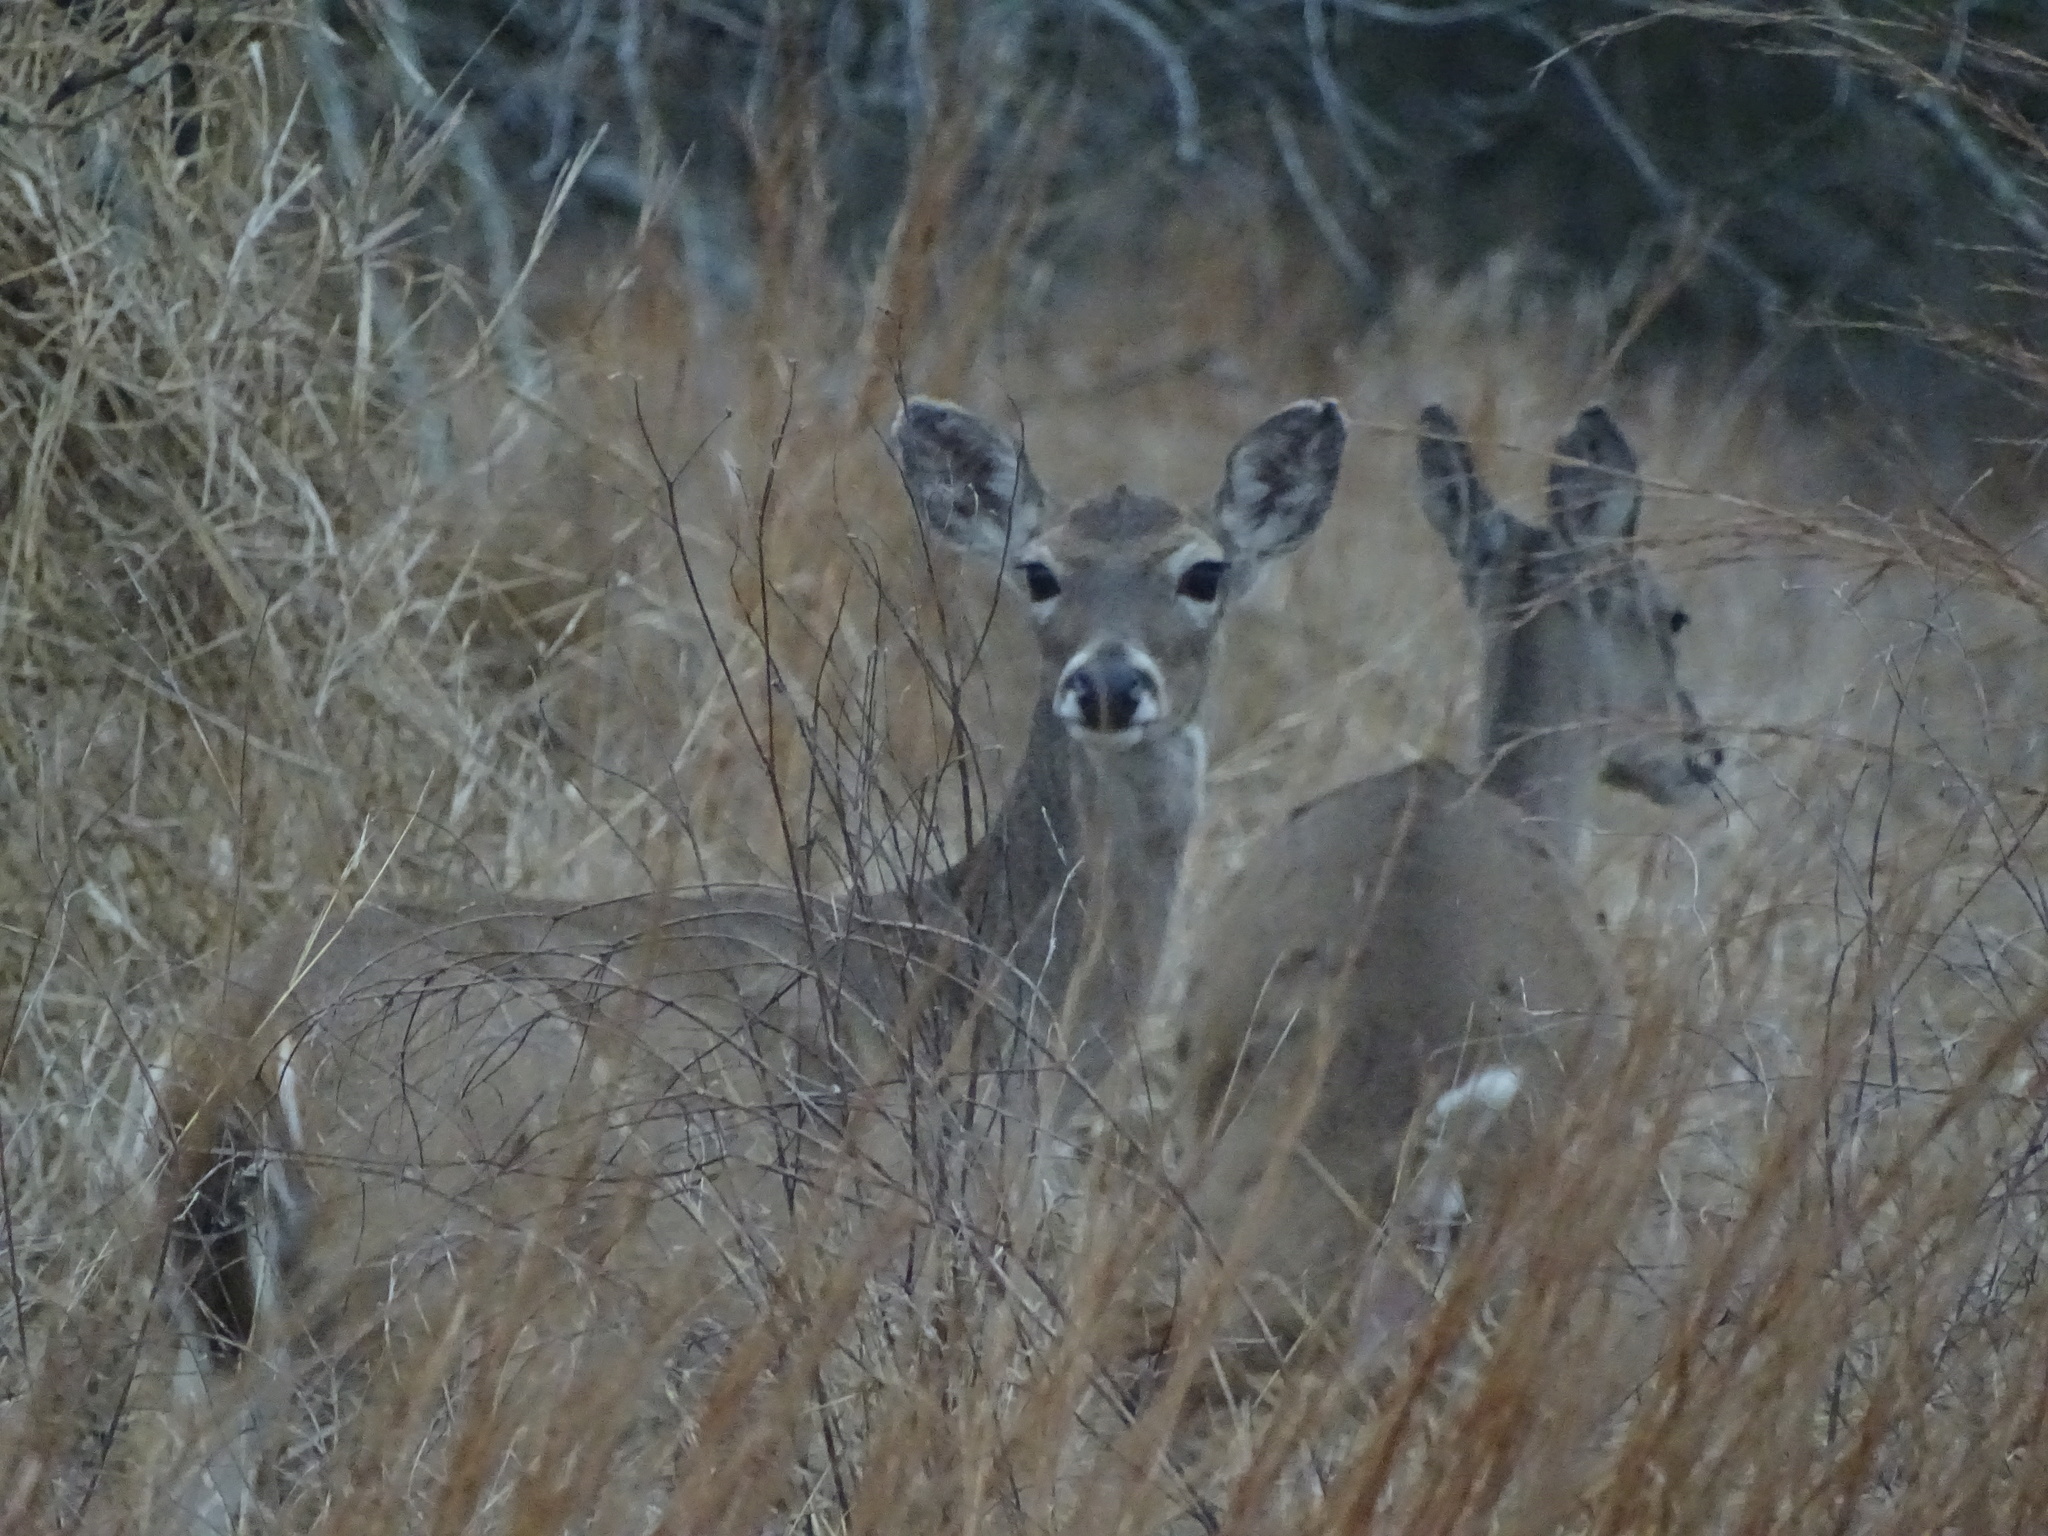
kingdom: Animalia
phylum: Chordata
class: Mammalia
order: Artiodactyla
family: Cervidae
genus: Odocoileus
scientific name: Odocoileus virginianus
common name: White-tailed deer
